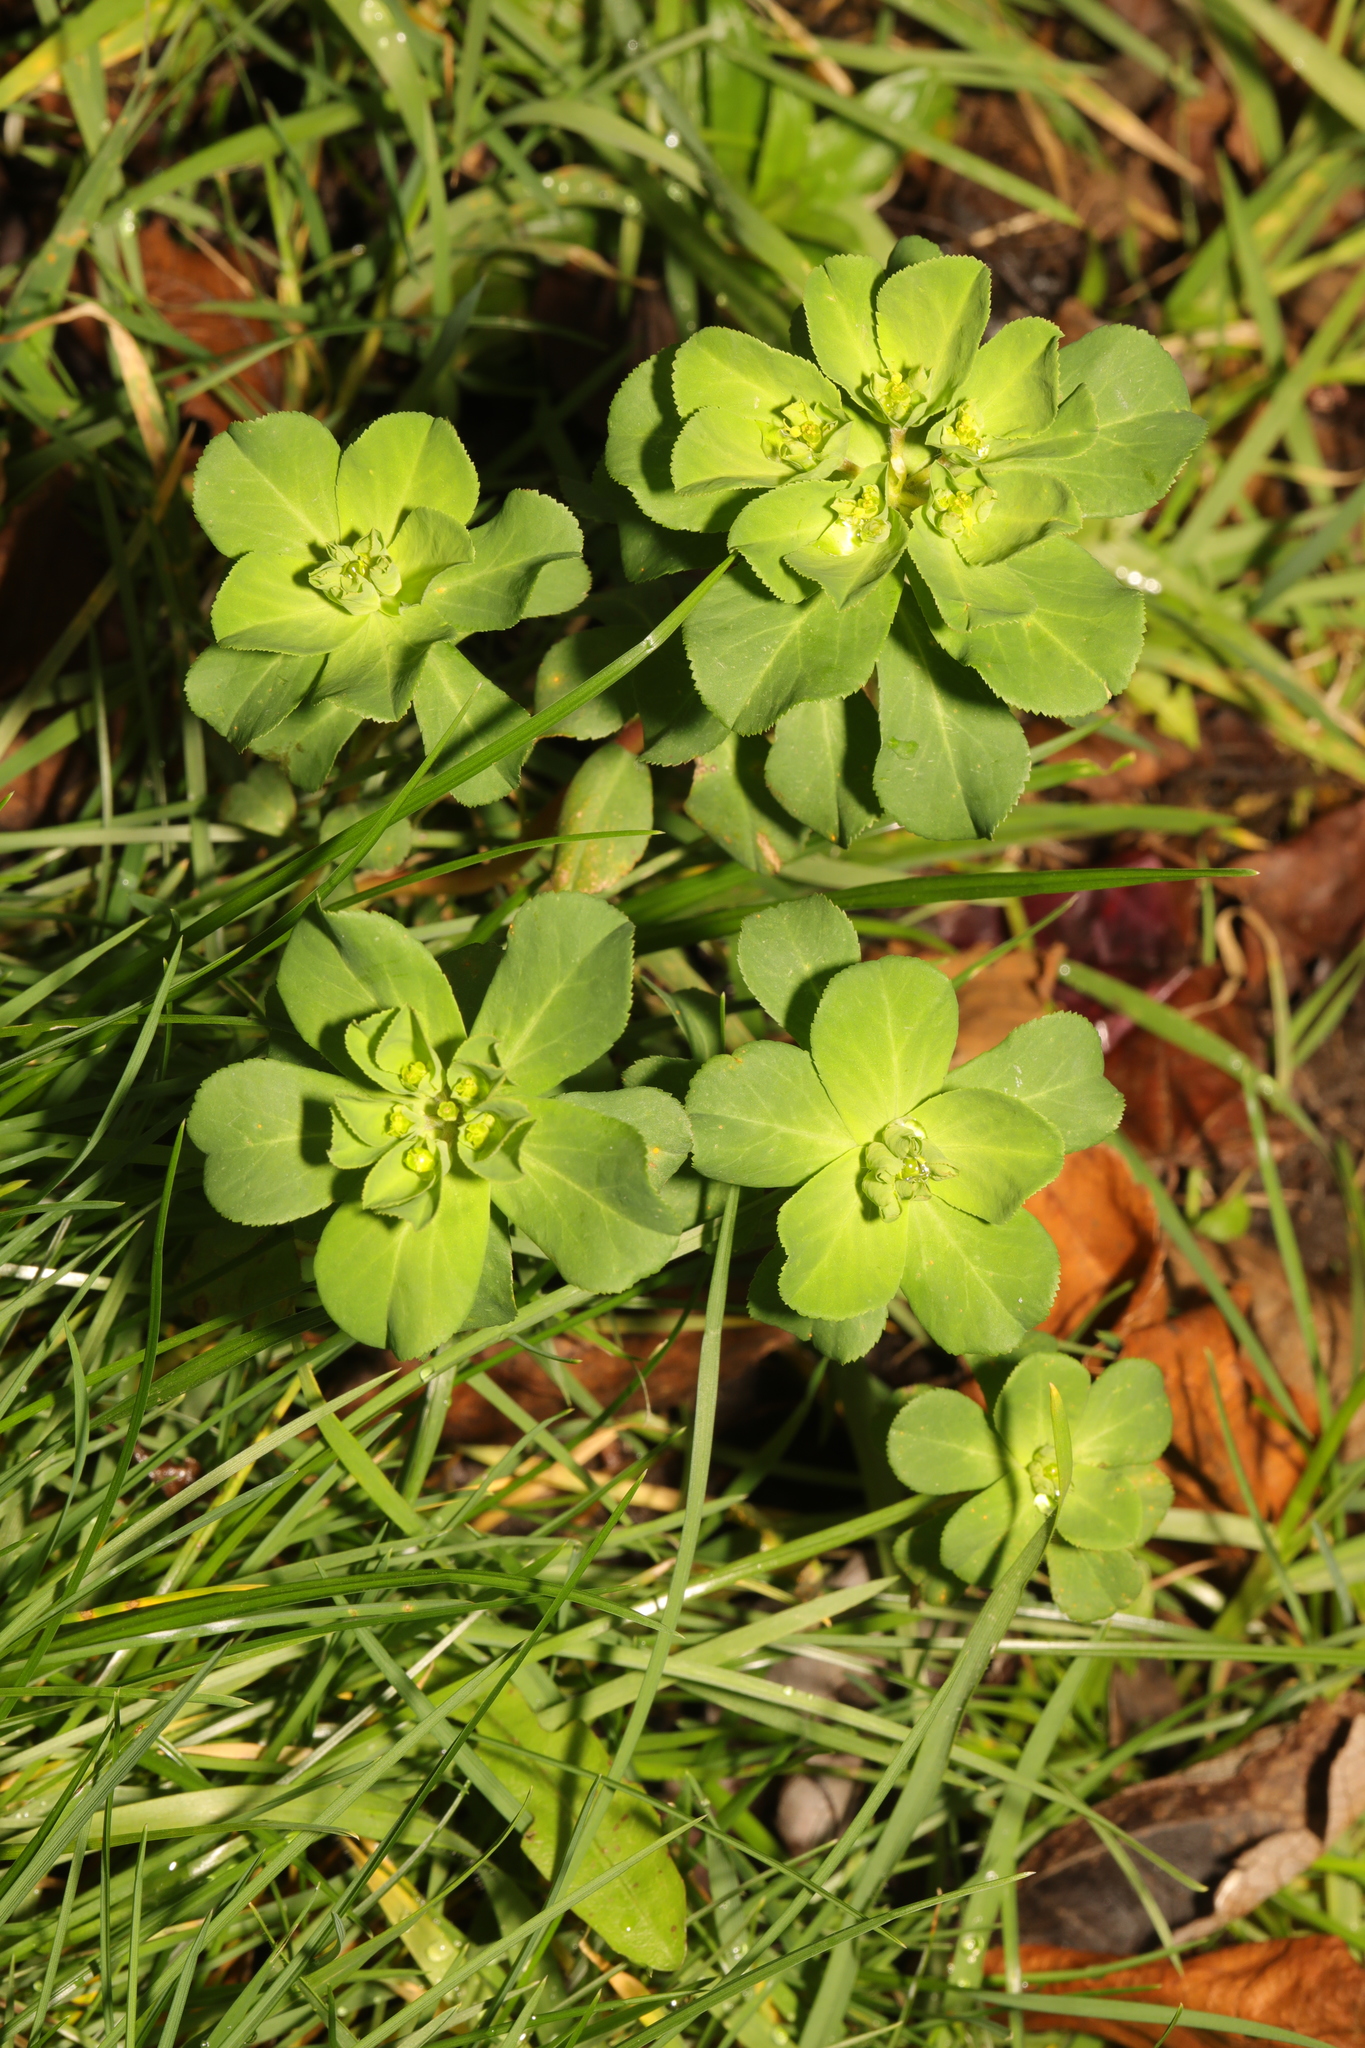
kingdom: Plantae
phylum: Tracheophyta
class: Magnoliopsida
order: Malpighiales
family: Euphorbiaceae
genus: Euphorbia
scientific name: Euphorbia helioscopia
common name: Sun spurge
